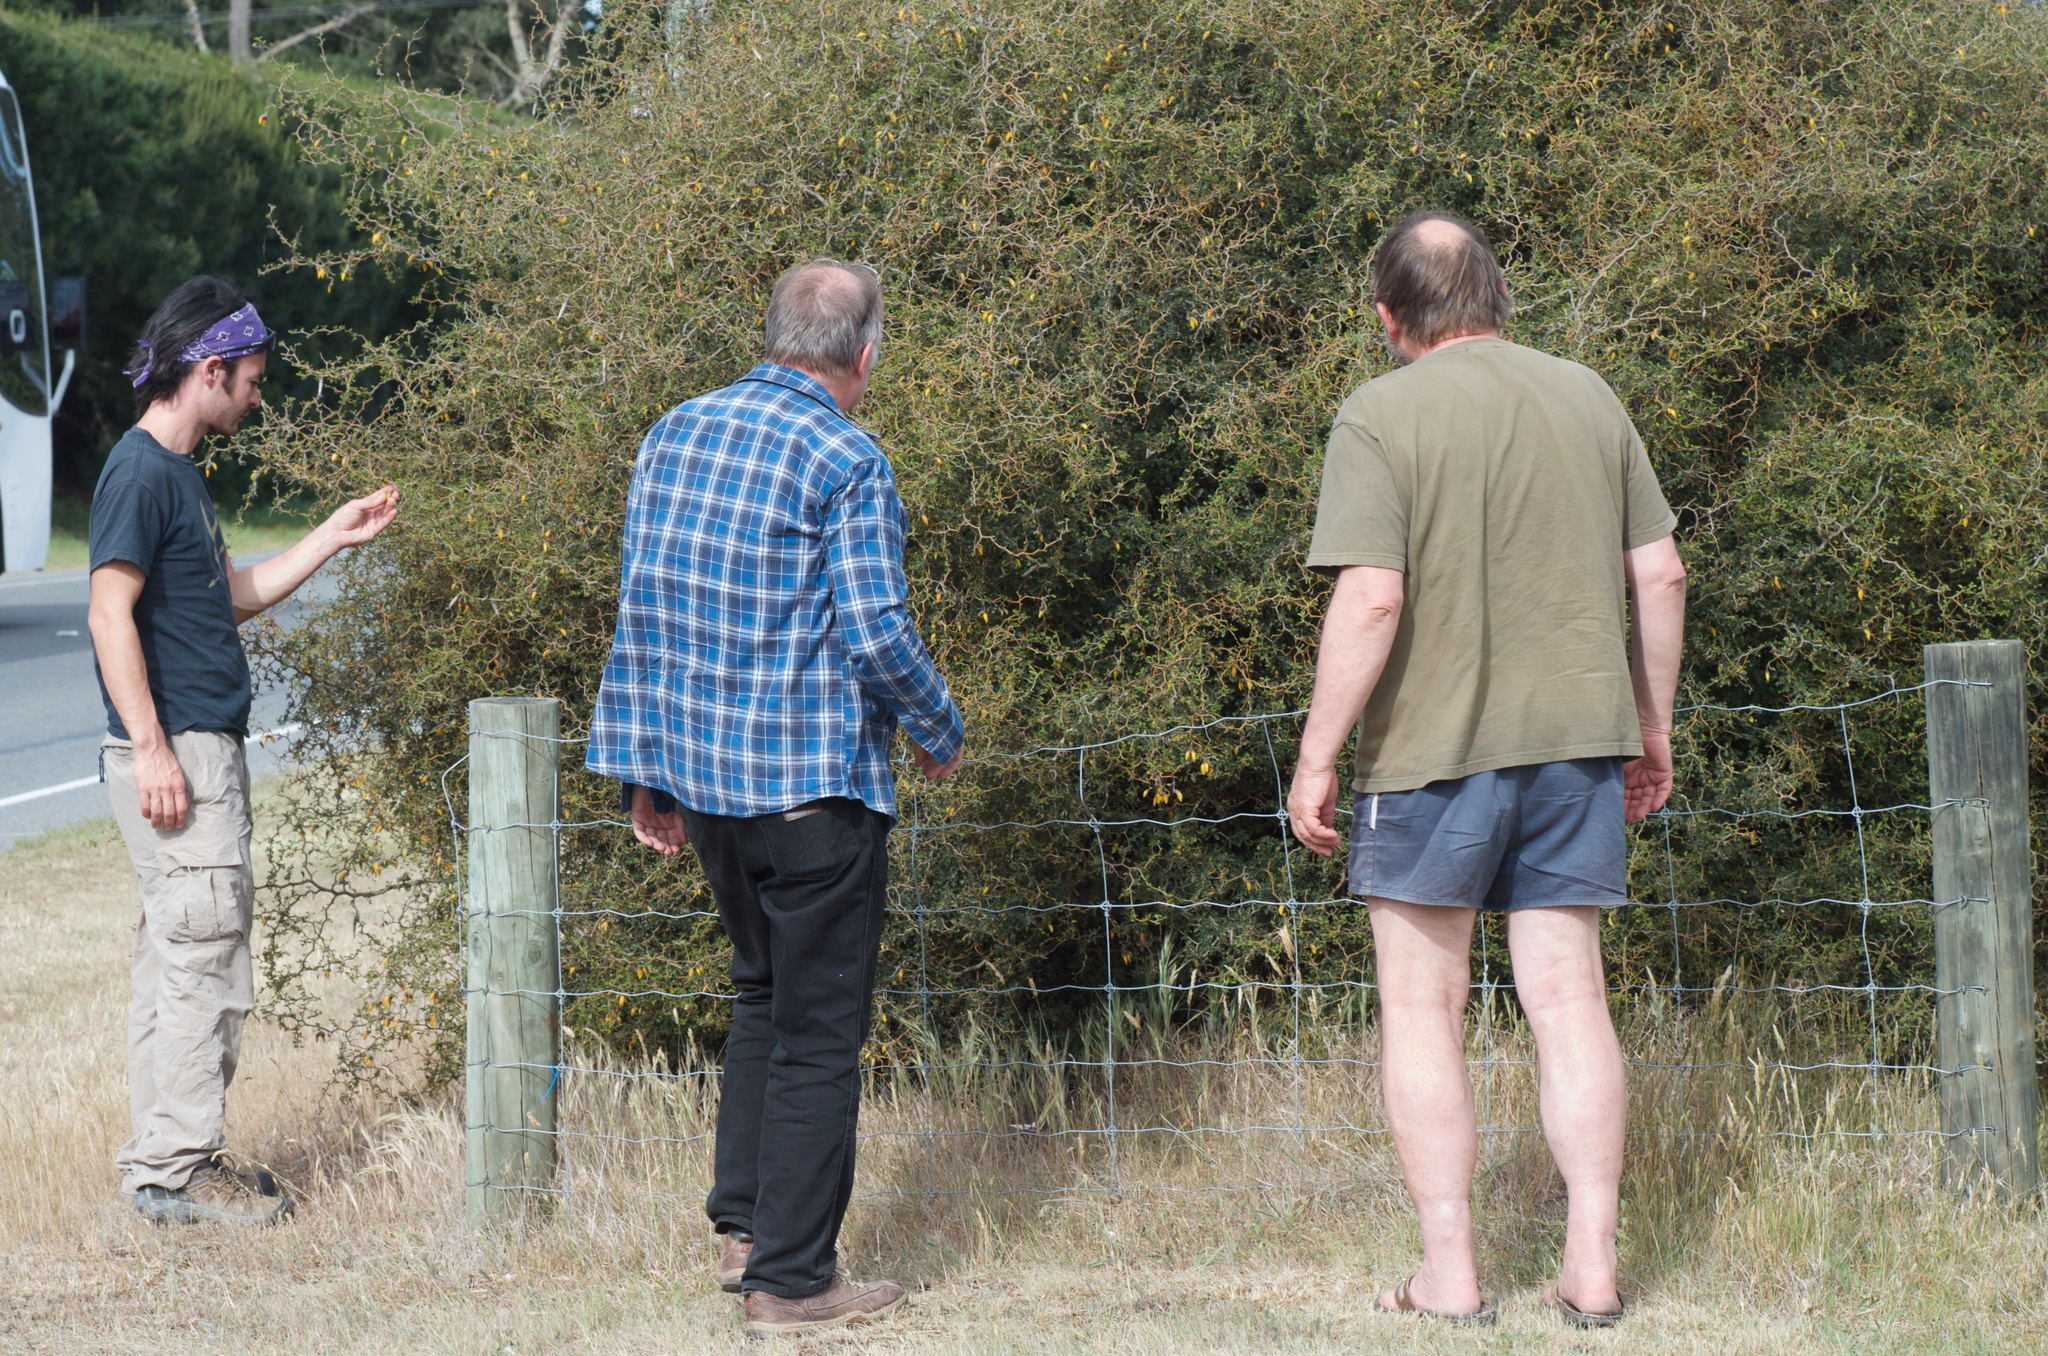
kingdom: Plantae
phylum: Tracheophyta
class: Magnoliopsida
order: Fabales
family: Fabaceae
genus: Sophora
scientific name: Sophora prostrata
